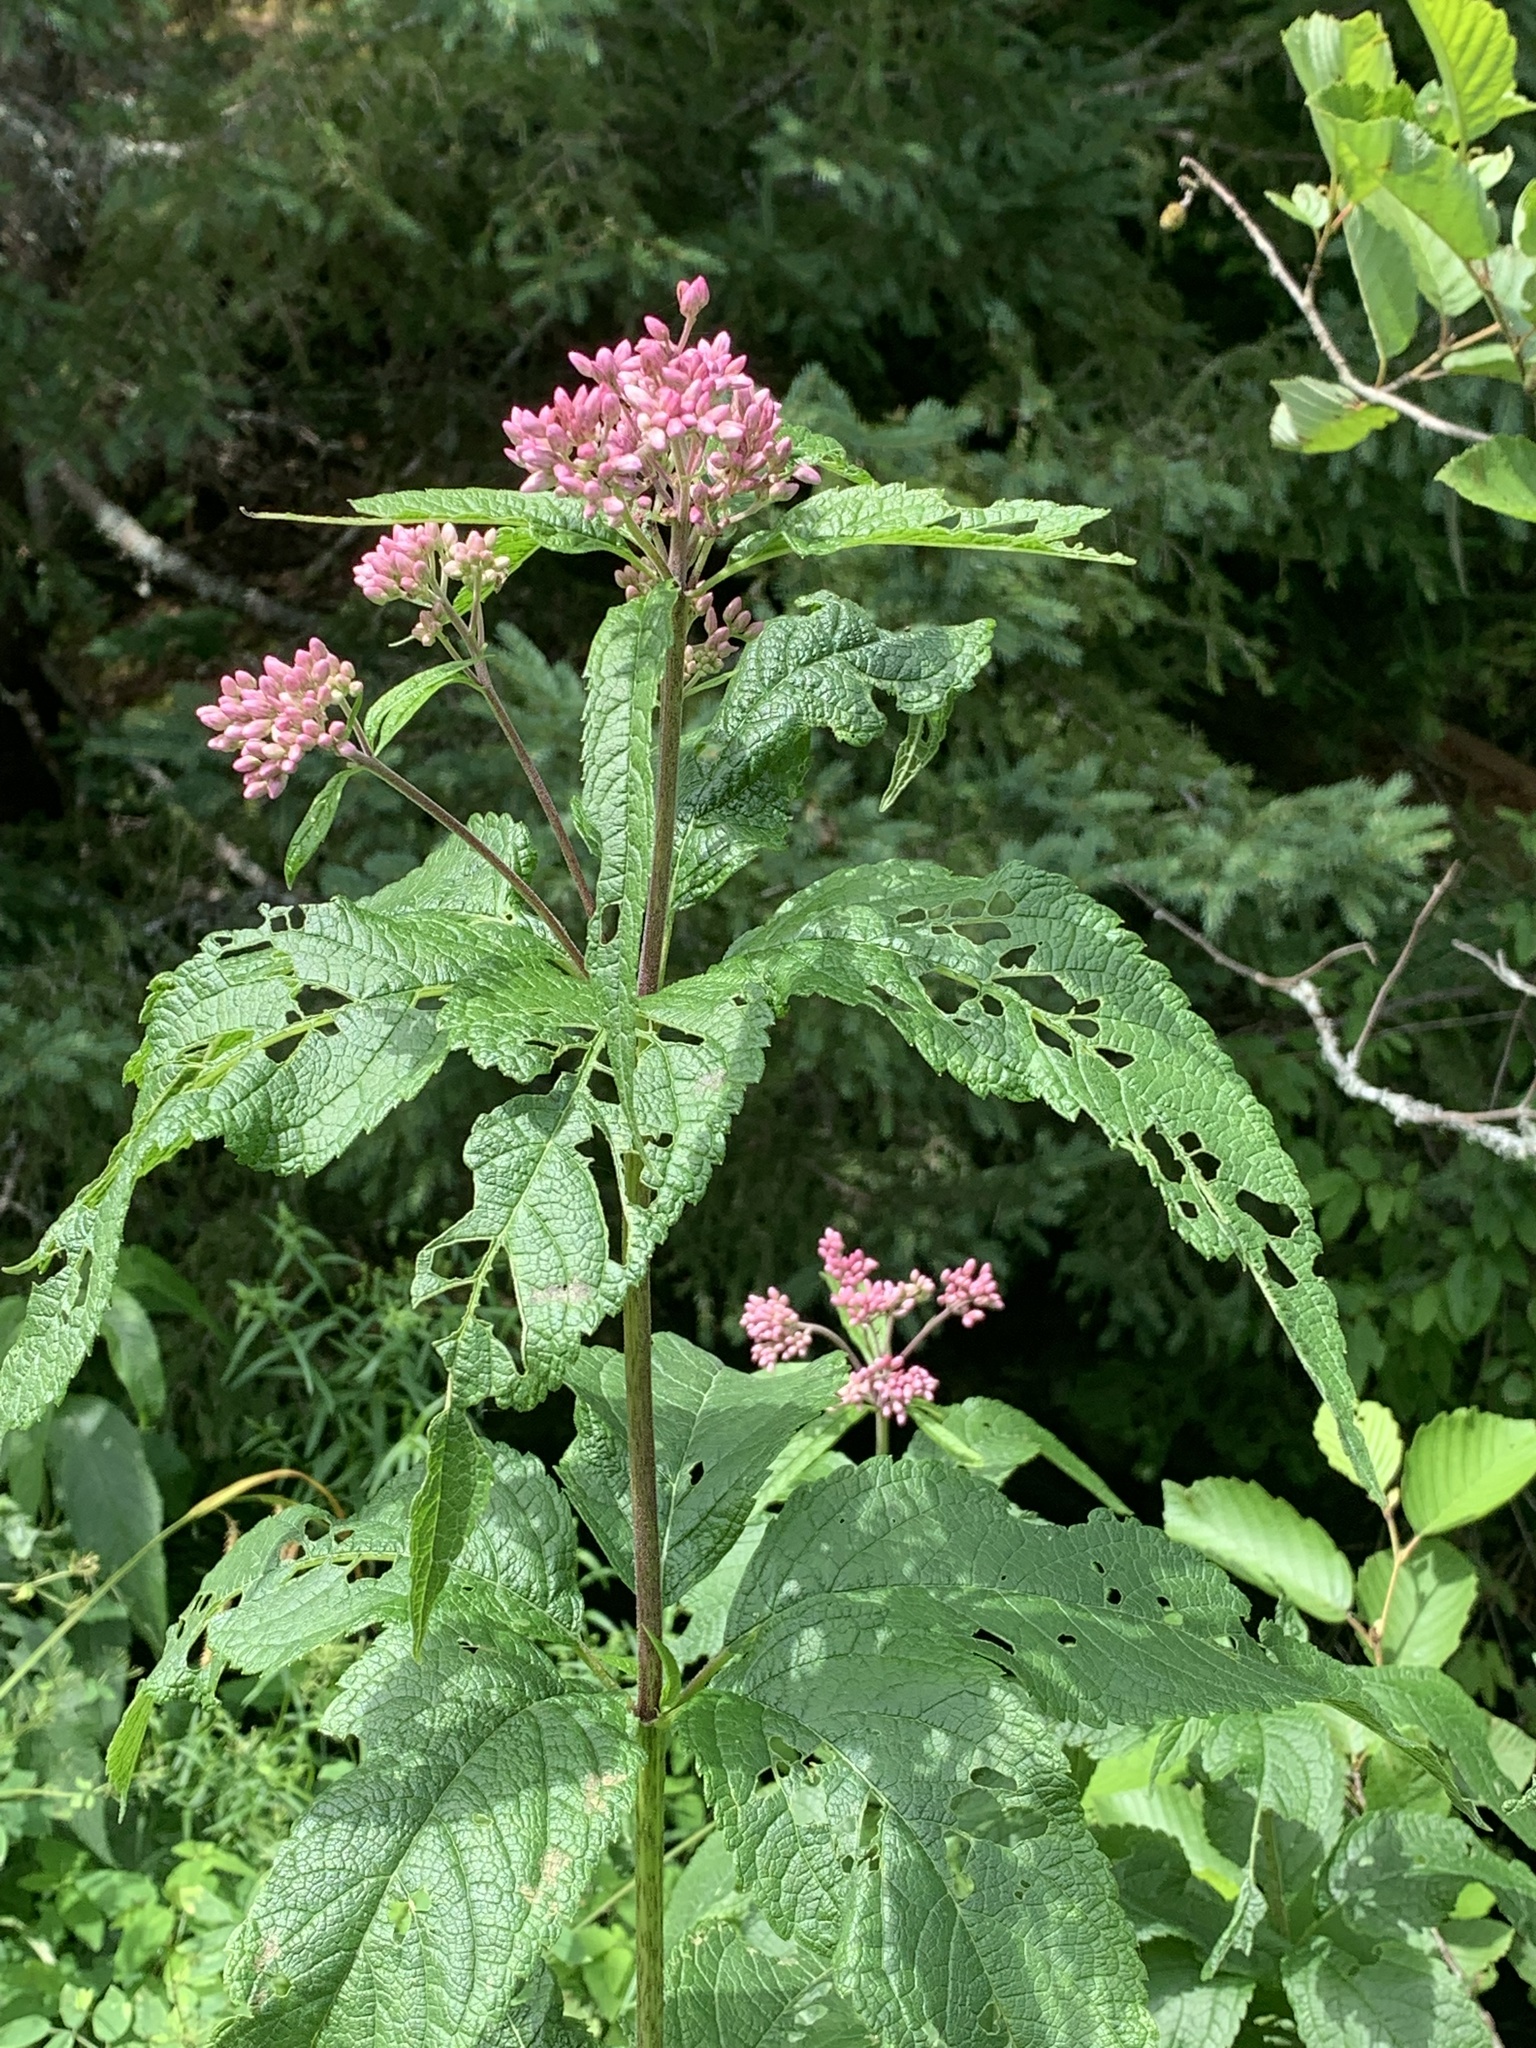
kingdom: Plantae
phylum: Tracheophyta
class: Magnoliopsida
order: Asterales
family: Asteraceae
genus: Eutrochium
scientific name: Eutrochium maculatum
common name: Spotted joe pye weed
